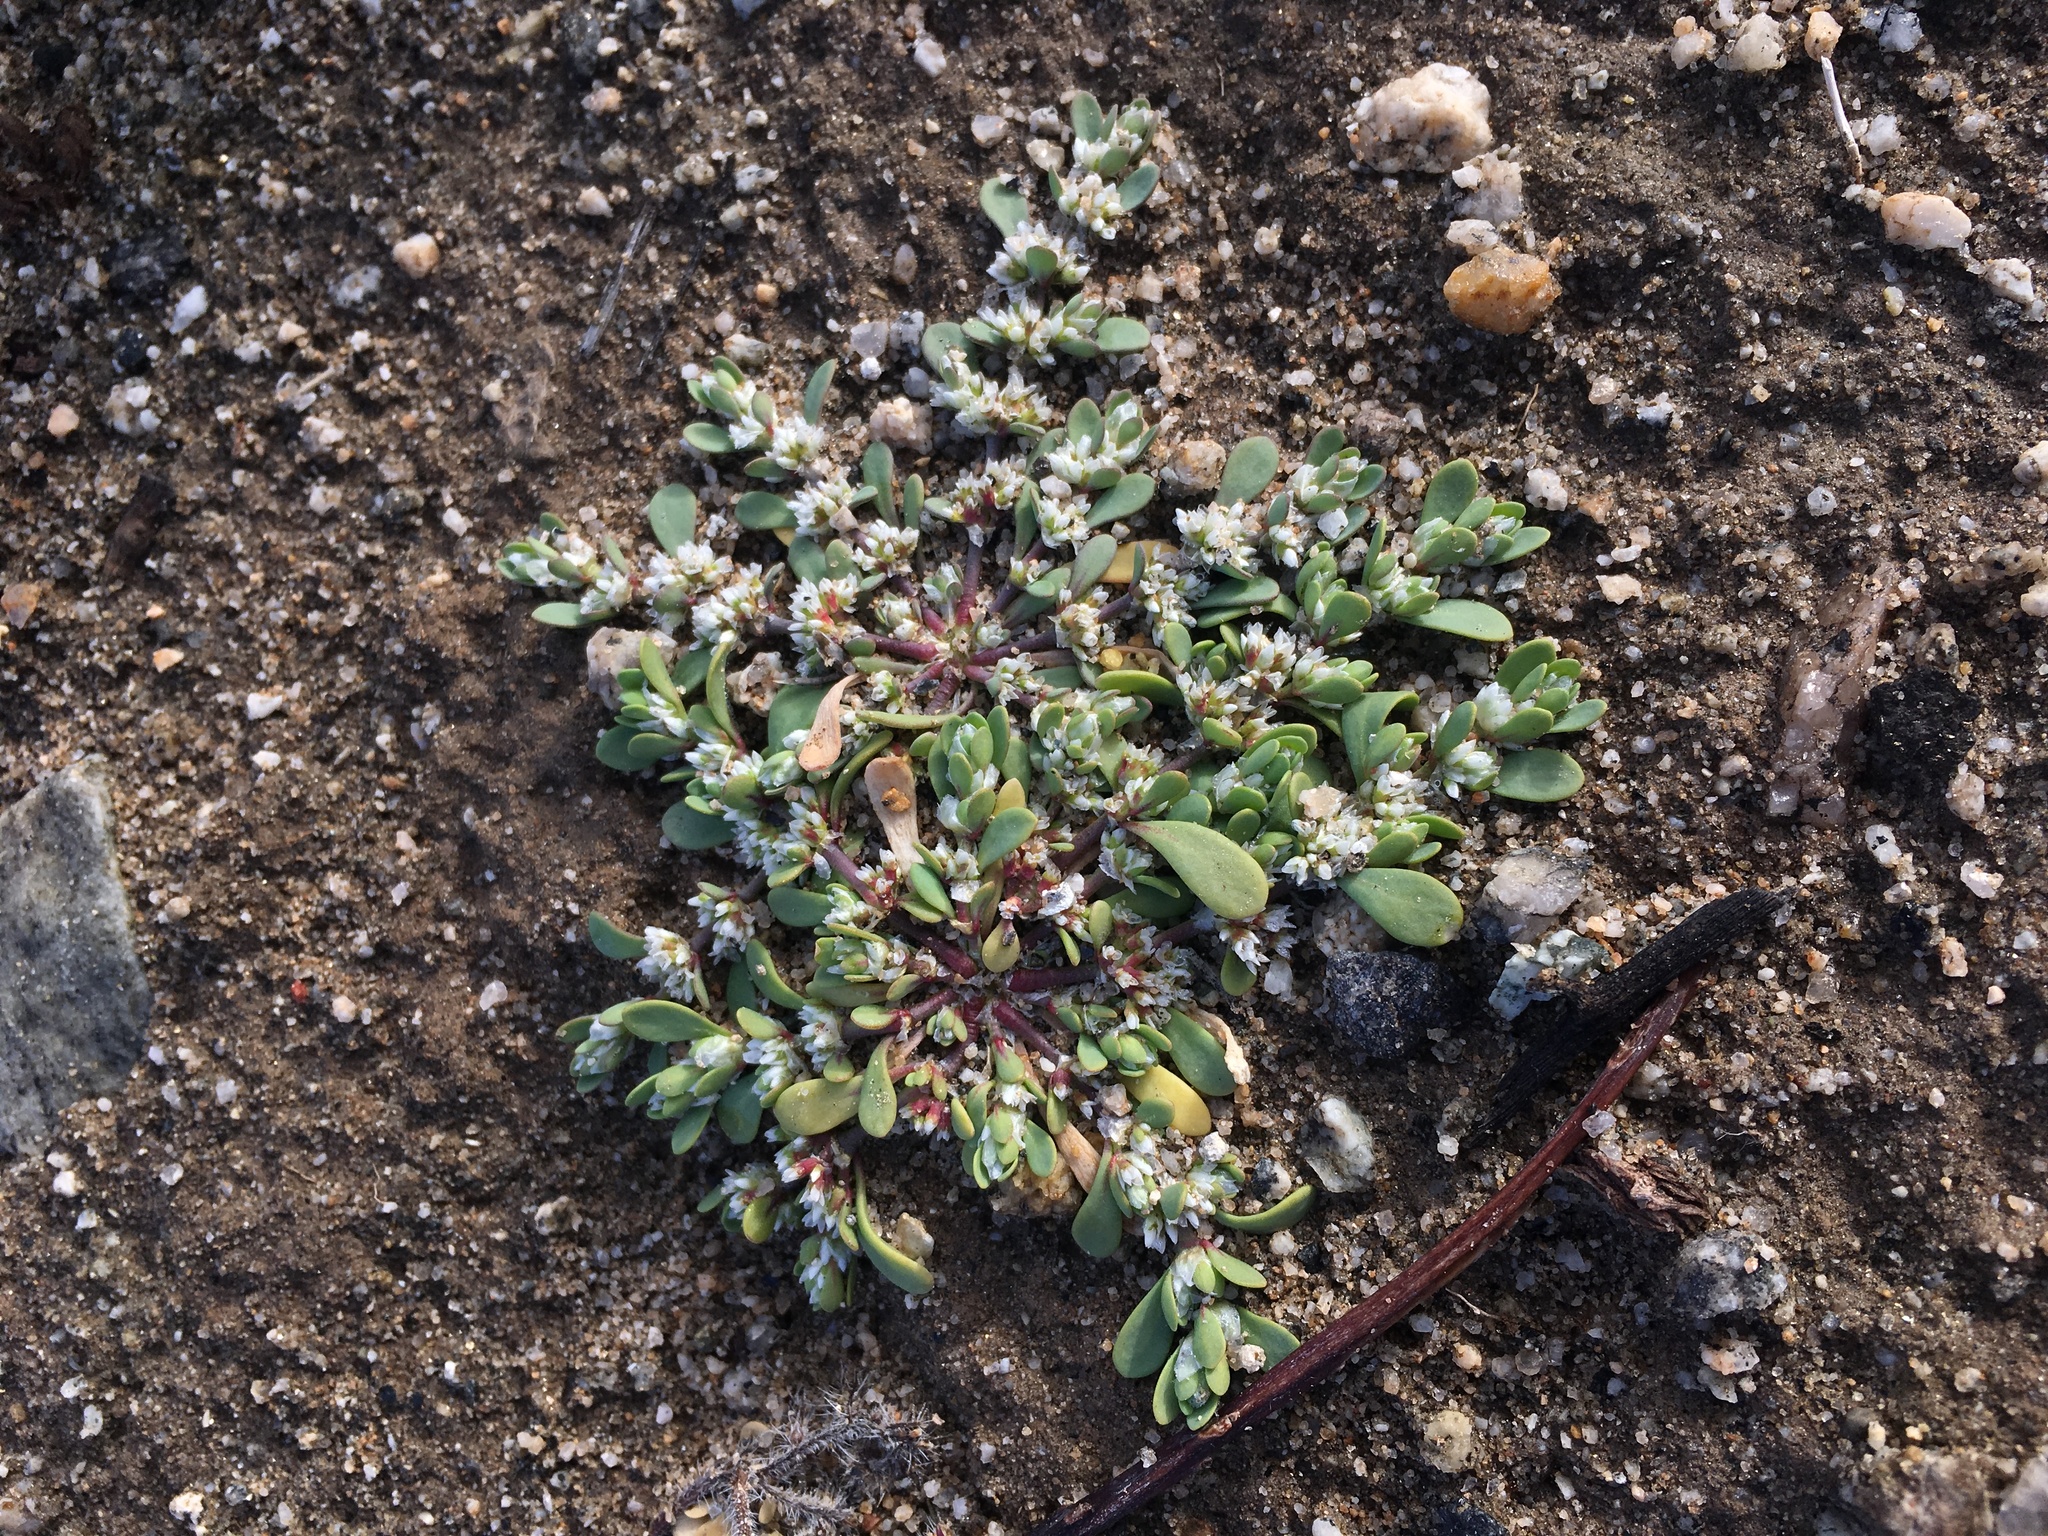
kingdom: Plantae
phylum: Tracheophyta
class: Magnoliopsida
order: Caryophyllales
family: Caryophyllaceae
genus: Achyronychia
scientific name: Achyronychia cooperi
